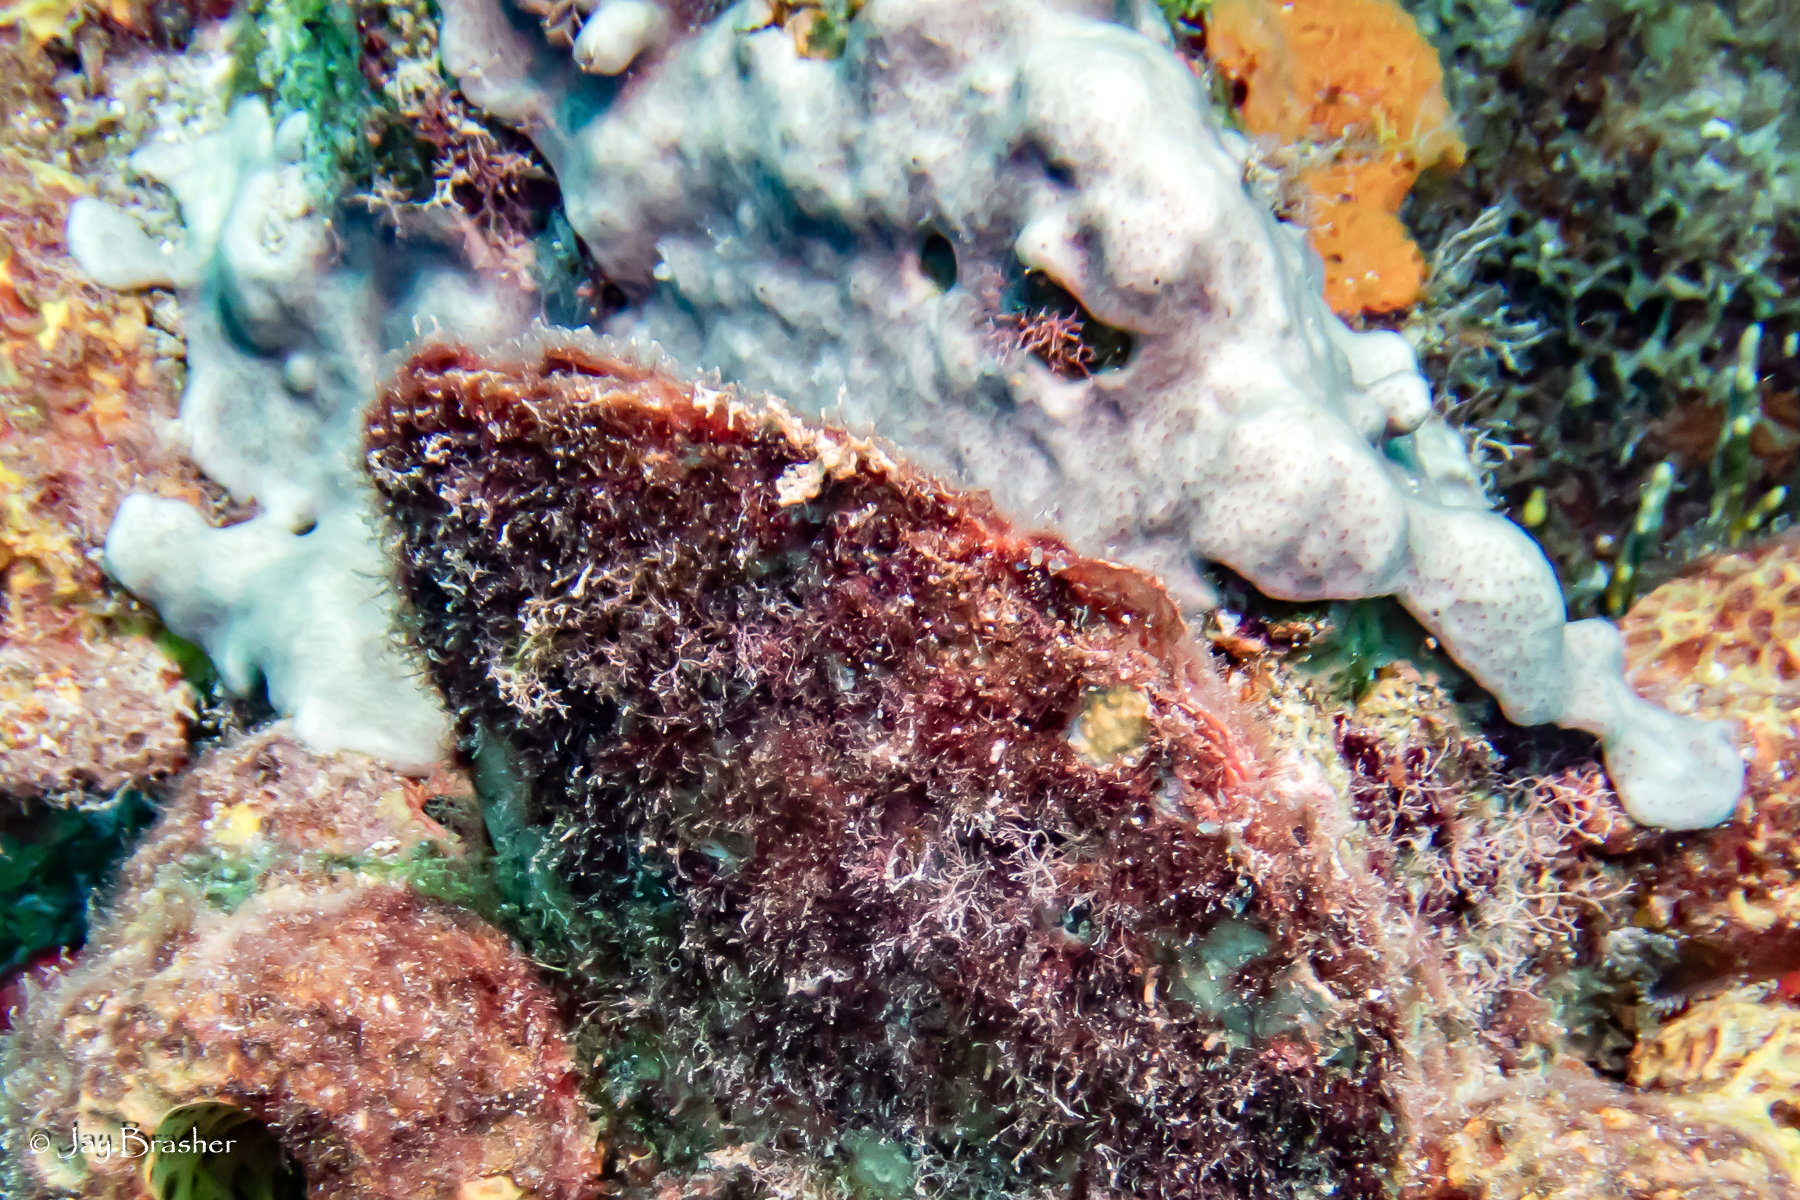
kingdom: Animalia
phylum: Chordata
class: Ascidiacea
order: Aplousobranchia
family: Didemnidae
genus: Trididemnum
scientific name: Trididemnum solidum
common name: Overgrowing mat tunicate
